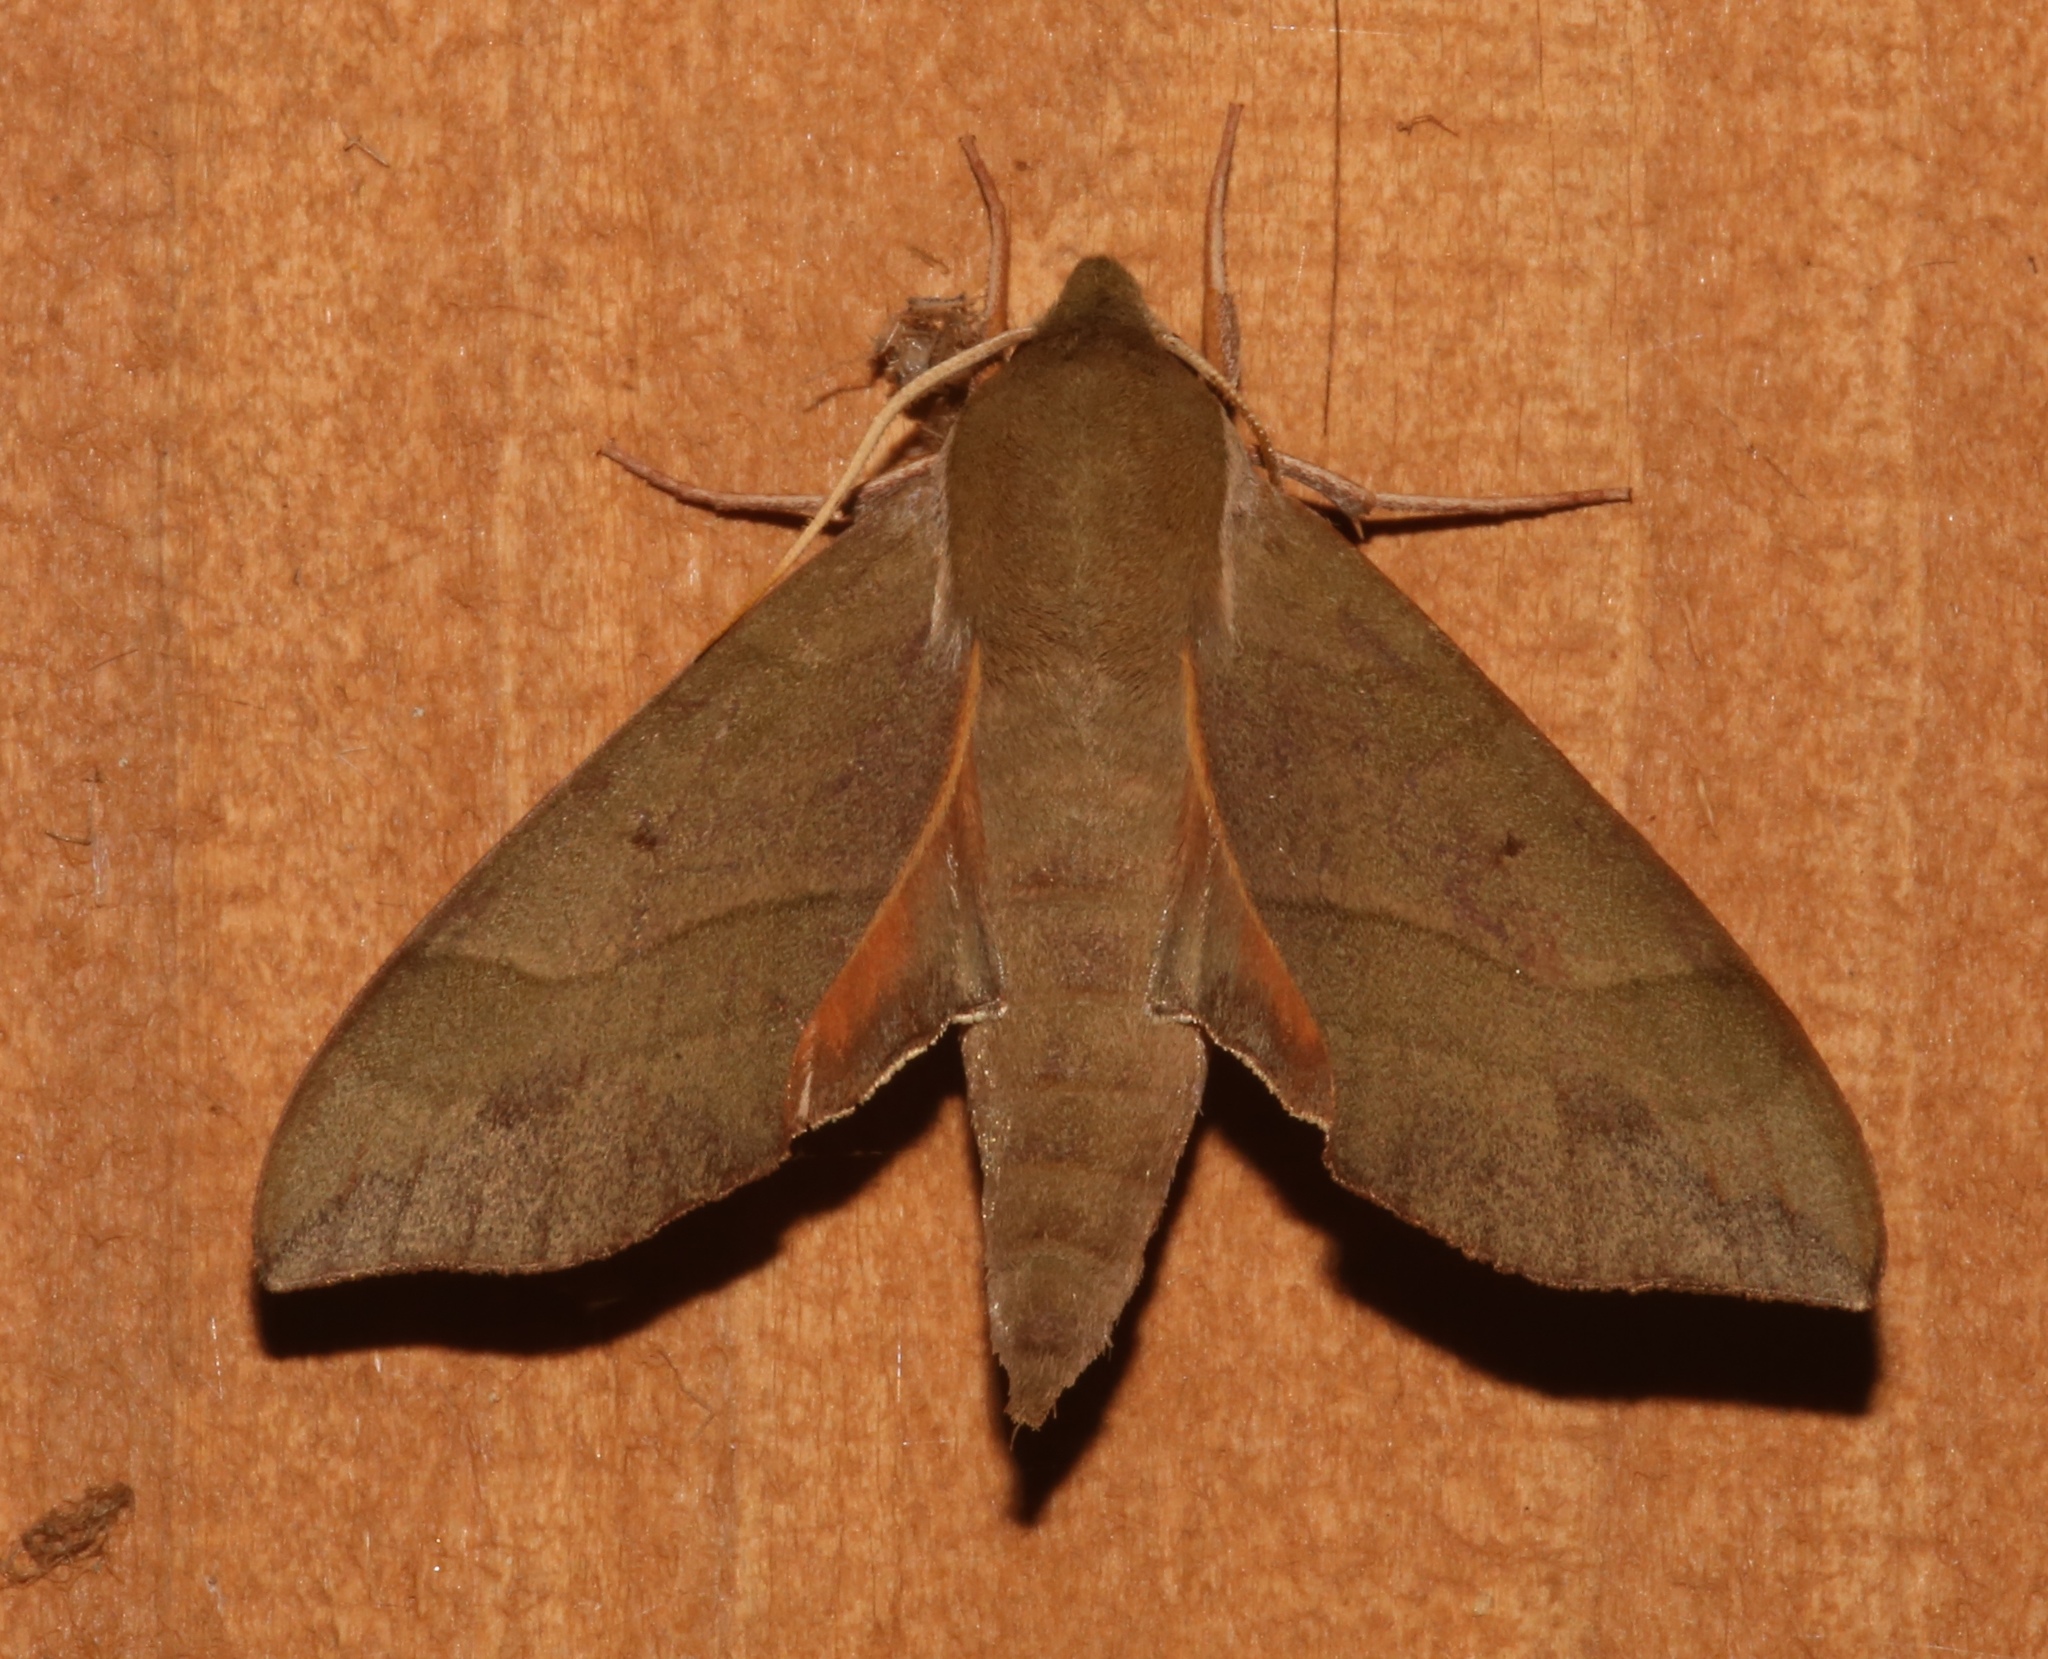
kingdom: Animalia
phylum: Arthropoda
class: Insecta
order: Lepidoptera
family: Sphingidae
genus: Darapsa
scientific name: Darapsa myron
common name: Hog sphinx
